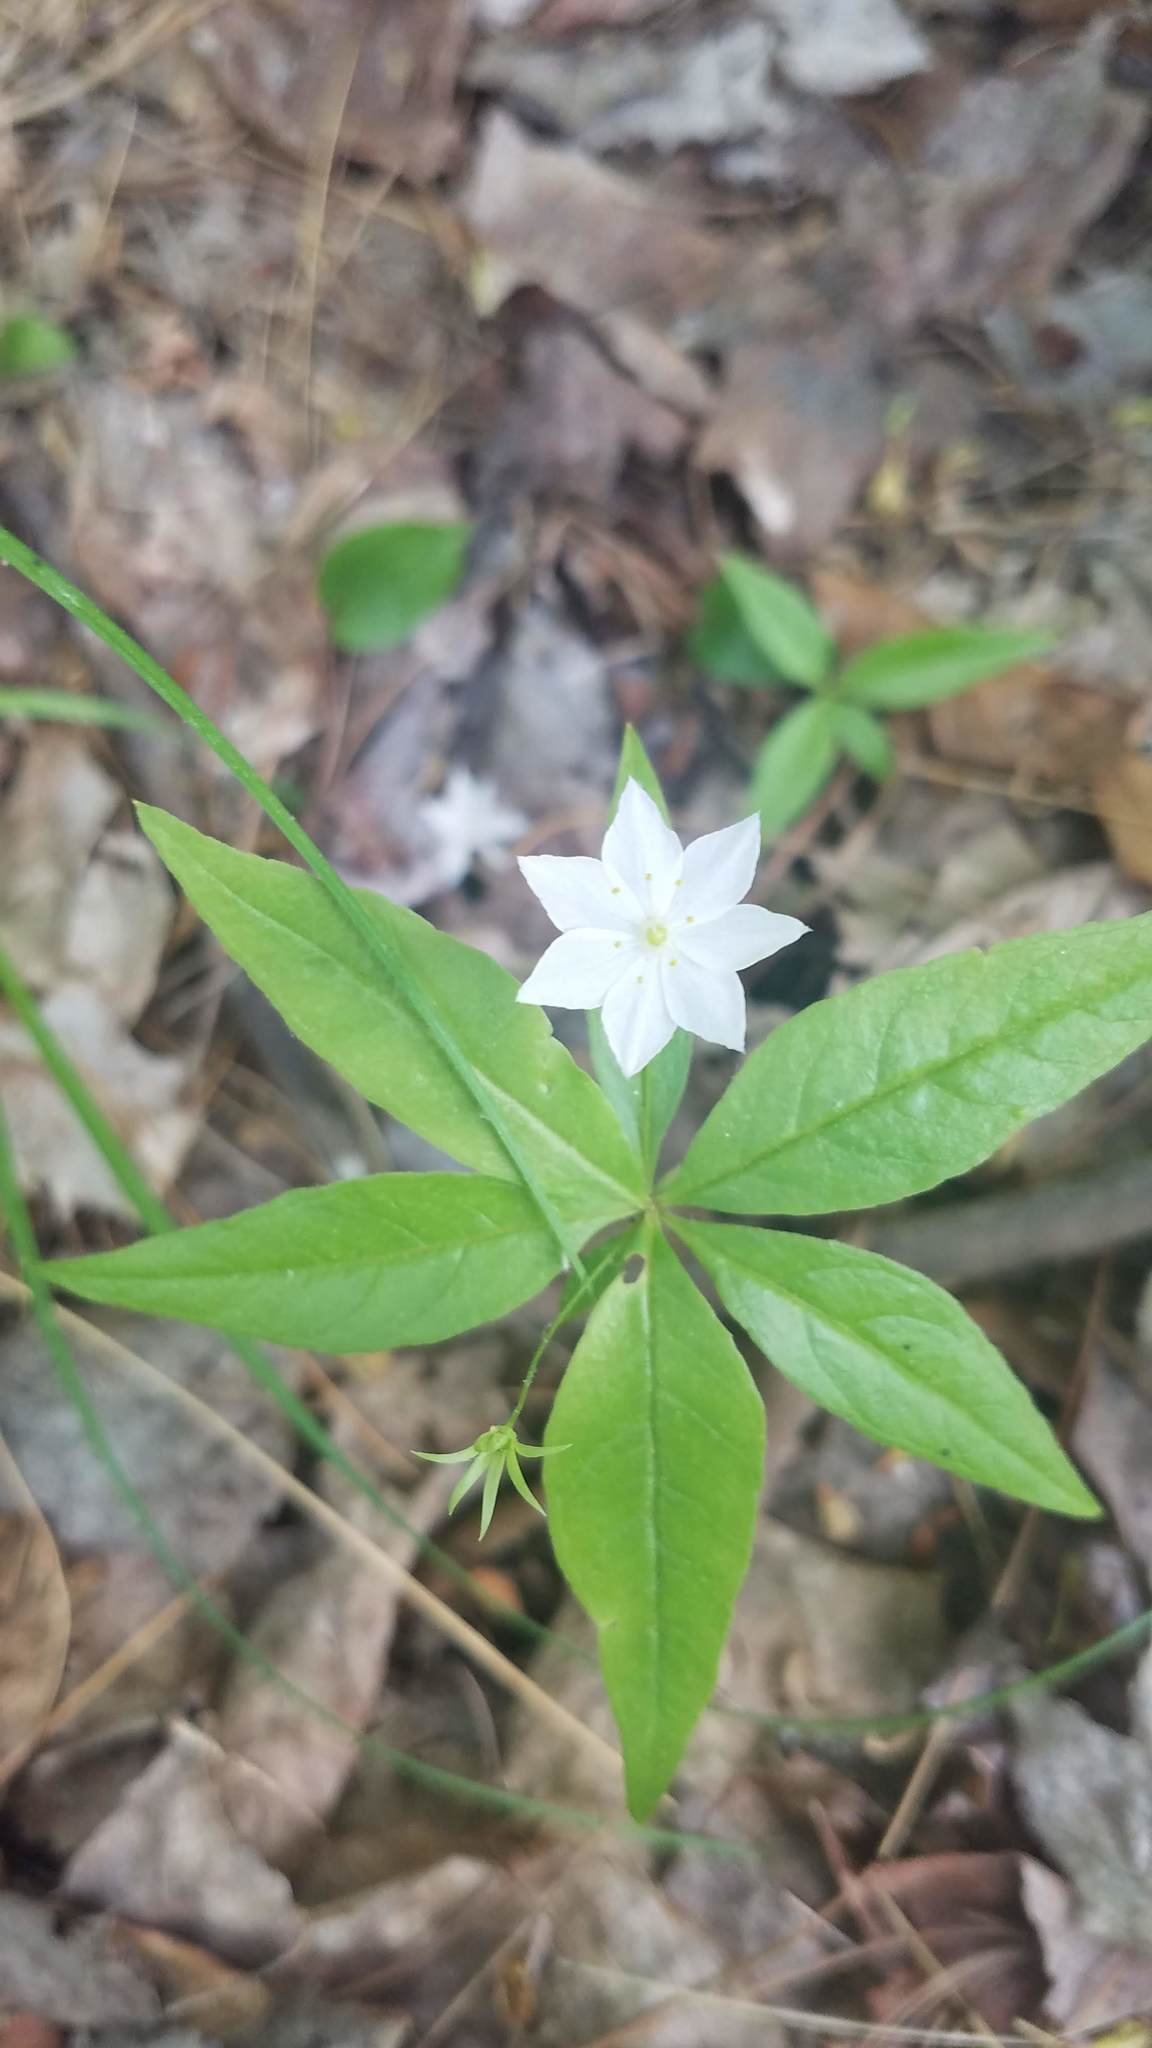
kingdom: Plantae
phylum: Tracheophyta
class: Magnoliopsida
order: Ericales
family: Primulaceae
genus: Lysimachia
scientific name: Lysimachia borealis
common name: American starflower
